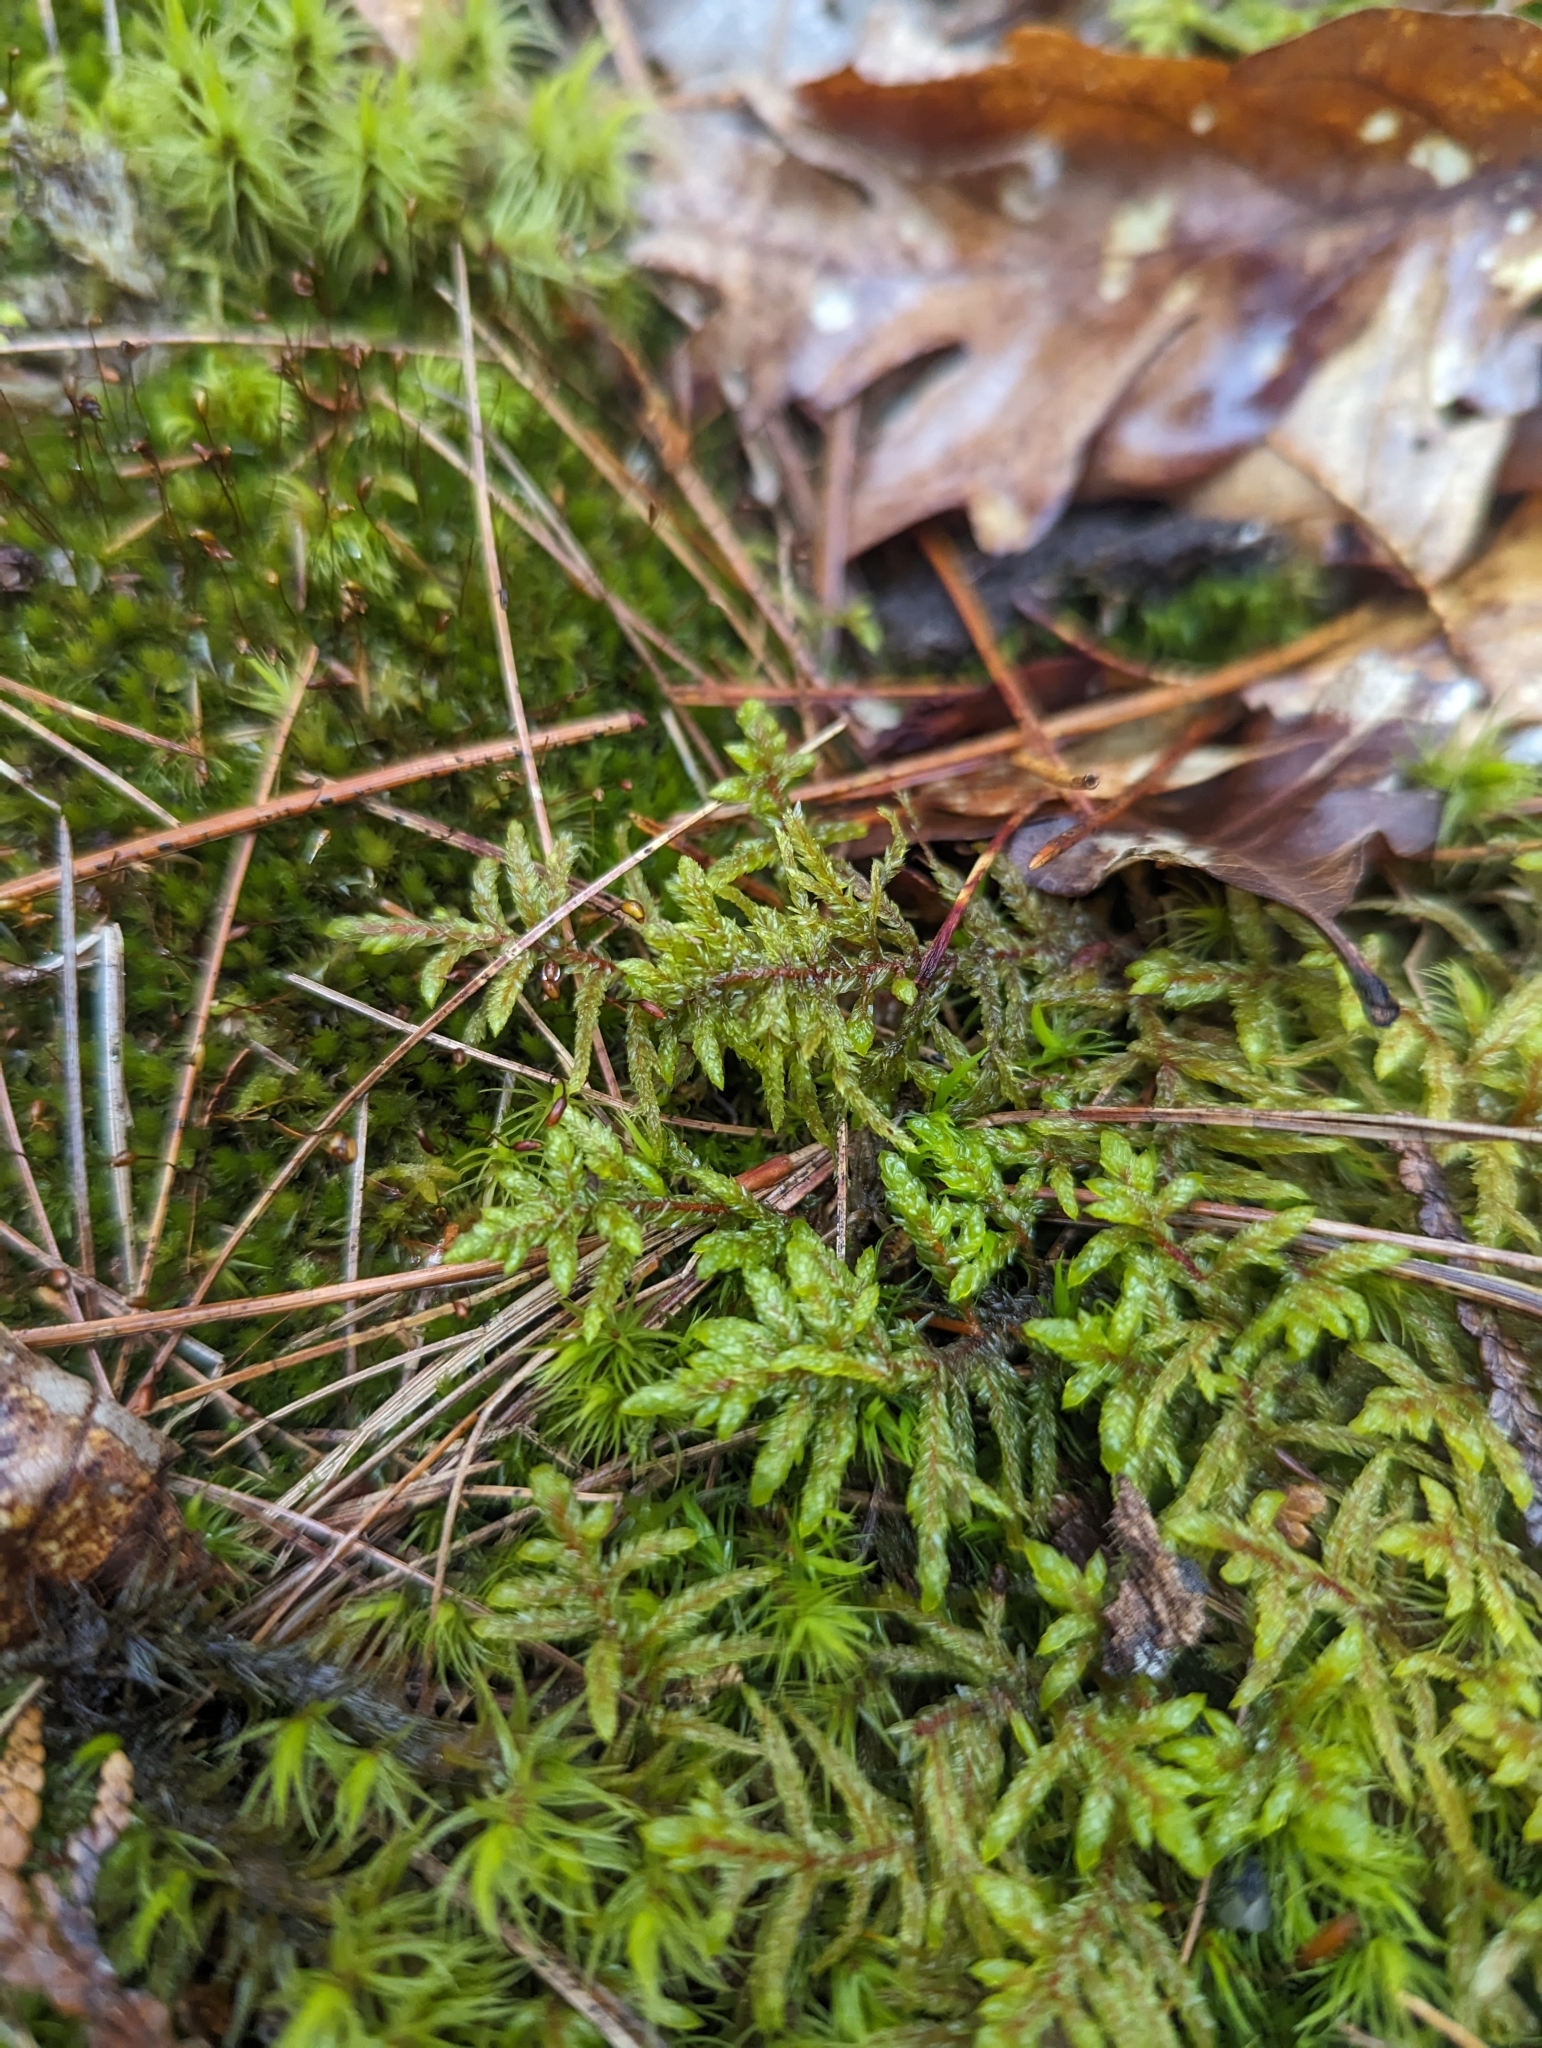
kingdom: Plantae
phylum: Bryophyta
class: Bryopsida
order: Hypnales
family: Hylocomiaceae
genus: Pleurozium
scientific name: Pleurozium schreberi
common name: Red-stemmed feather moss
